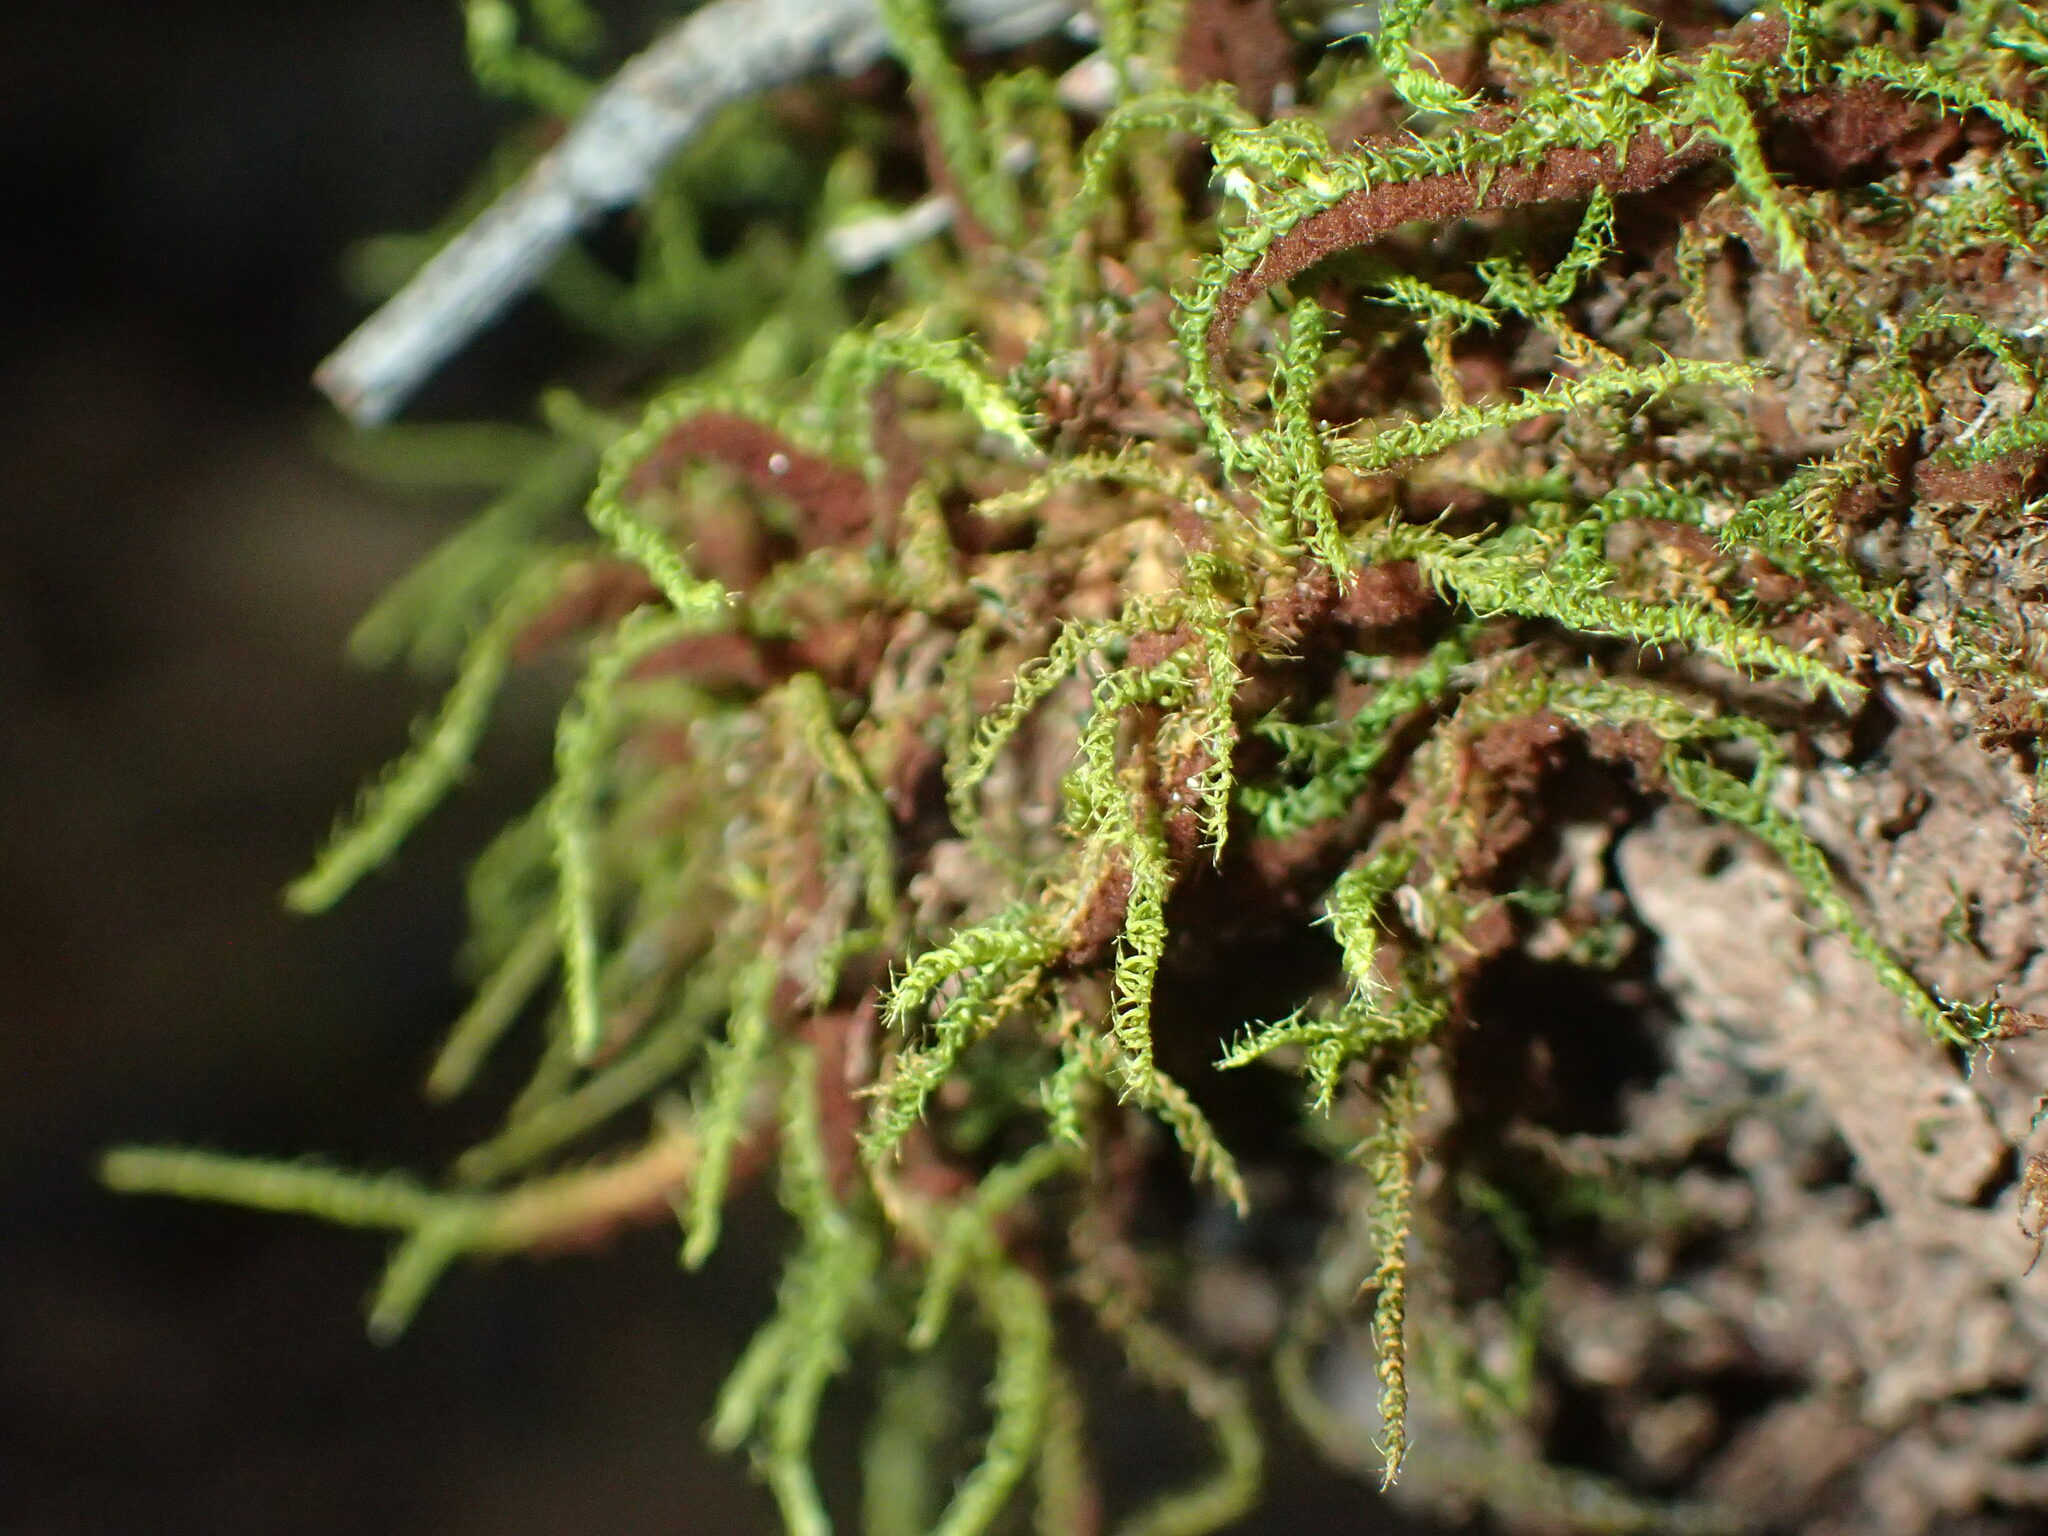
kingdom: Plantae
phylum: Bryophyta
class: Bryopsida
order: Hypnodendrales
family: Racopilaceae
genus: Racopilum
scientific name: Racopilum cuspidigerum
